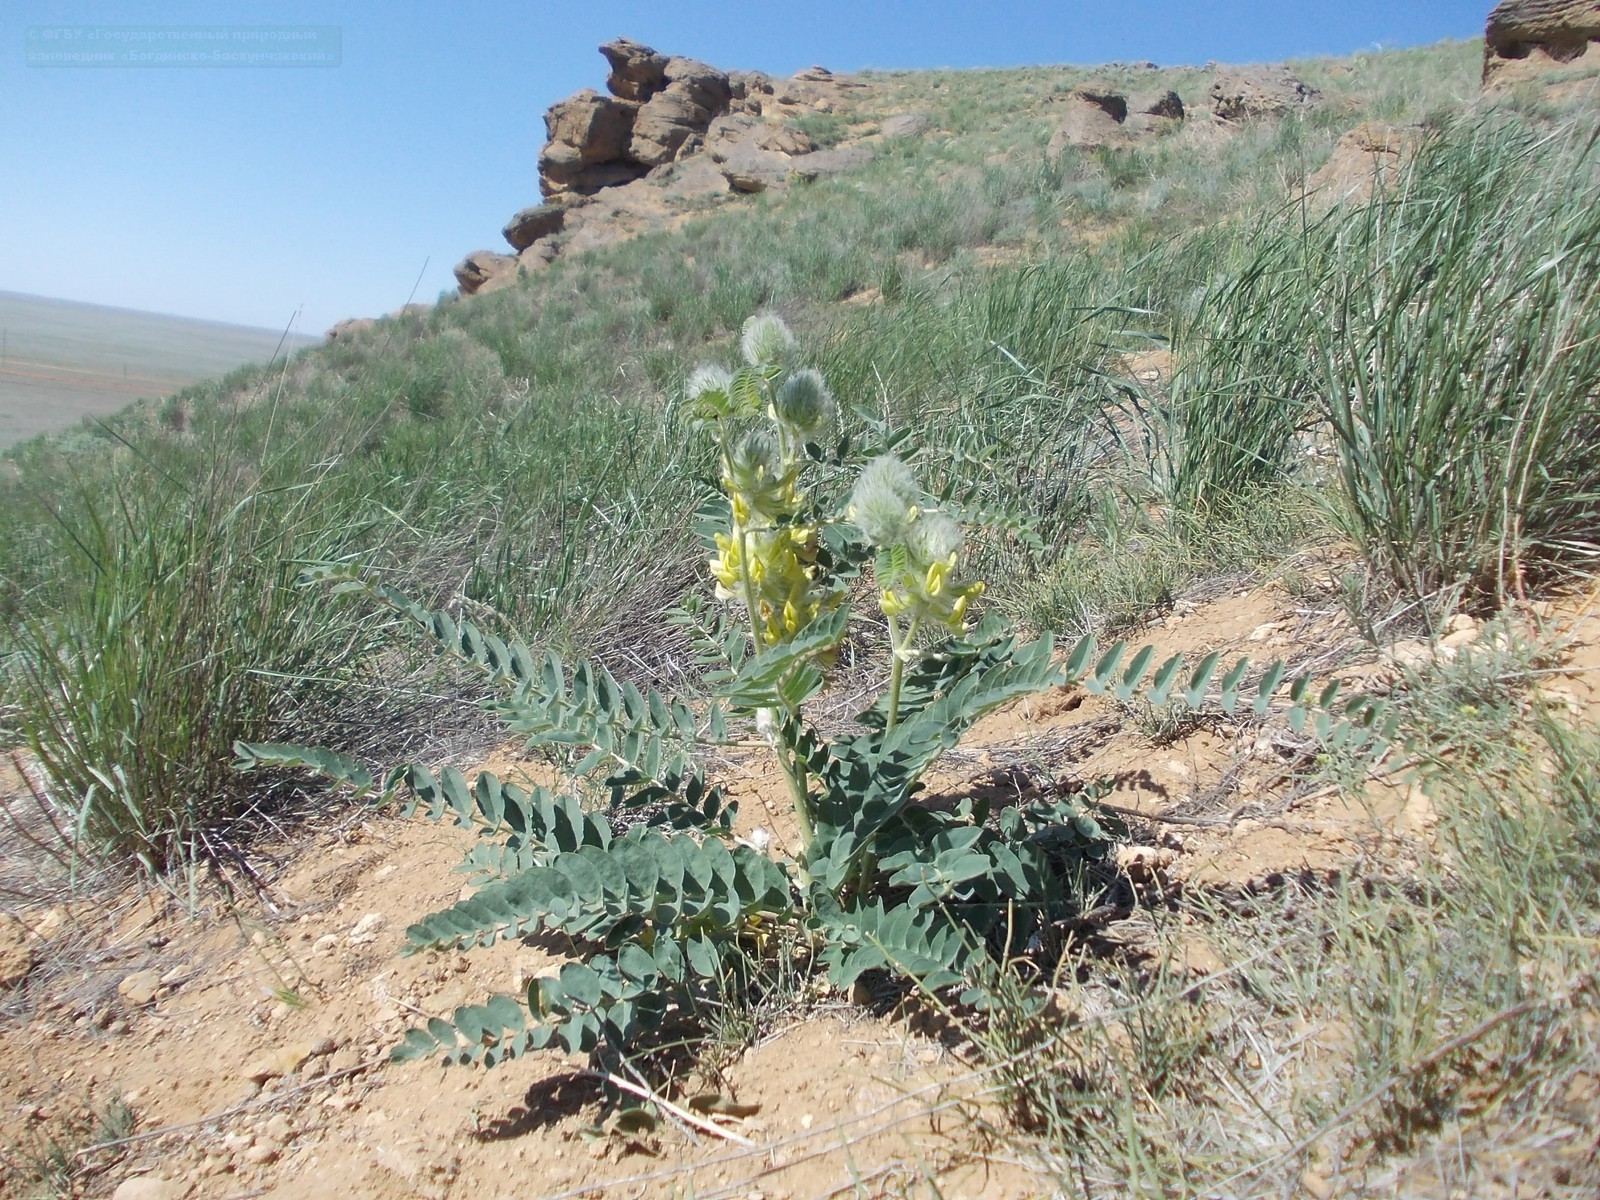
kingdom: Plantae
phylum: Tracheophyta
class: Magnoliopsida
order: Fabales
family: Fabaceae
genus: Astragalus
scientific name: Astragalus vulpinus
